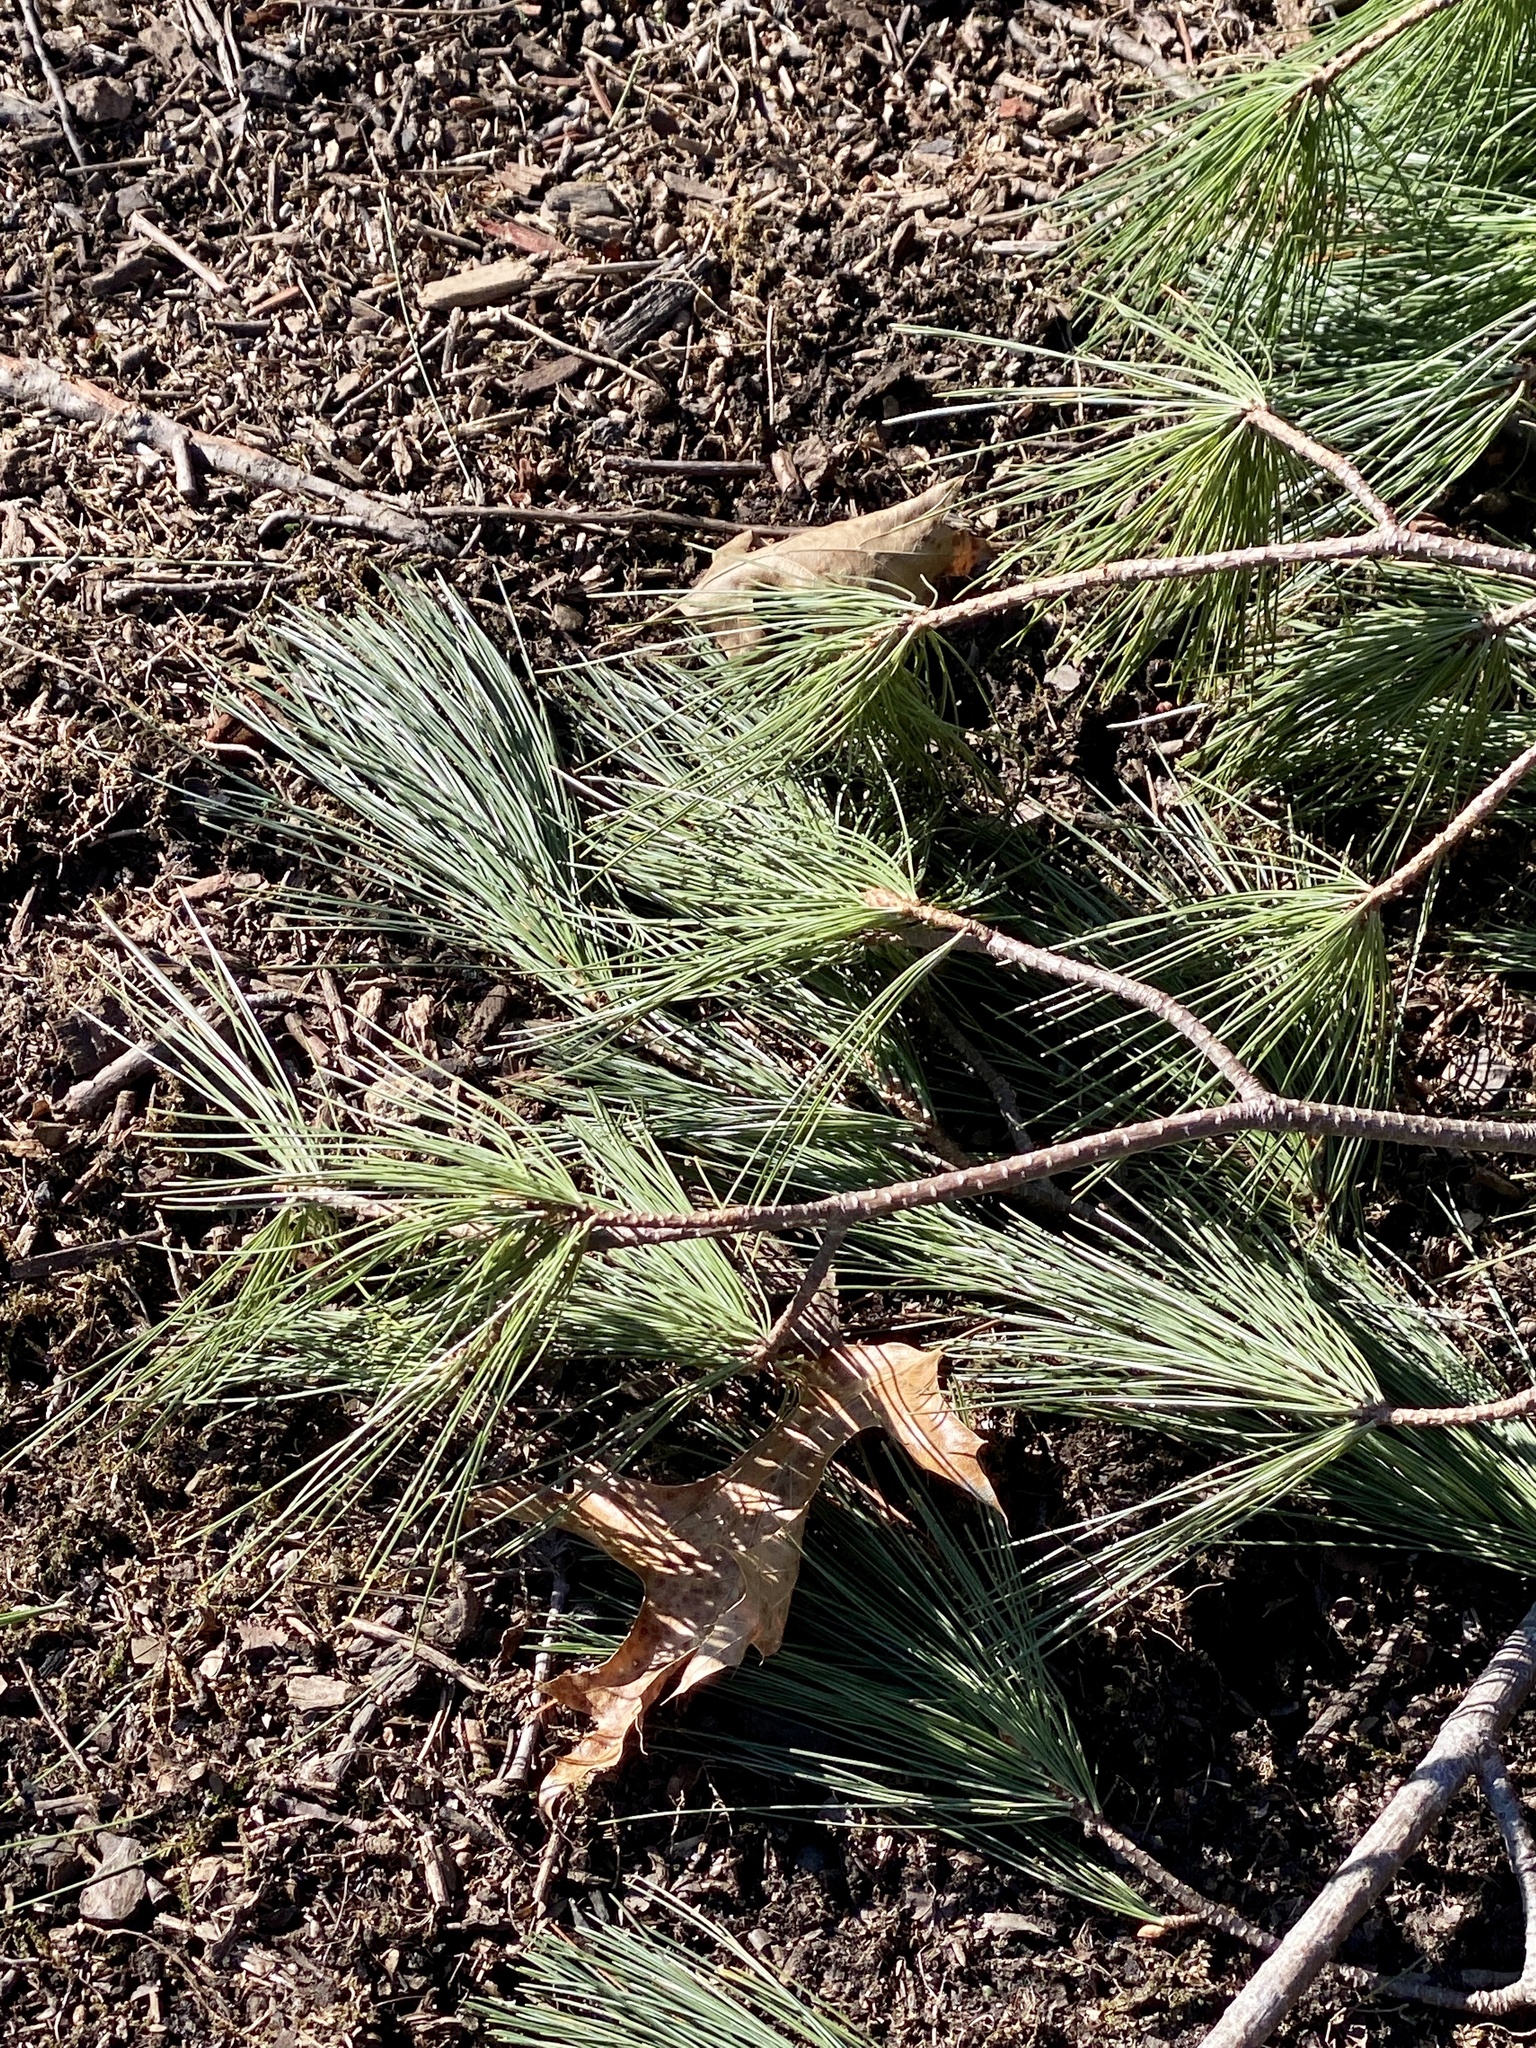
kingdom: Plantae
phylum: Tracheophyta
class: Pinopsida
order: Pinales
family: Pinaceae
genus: Pinus
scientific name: Pinus strobus
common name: Weymouth pine
